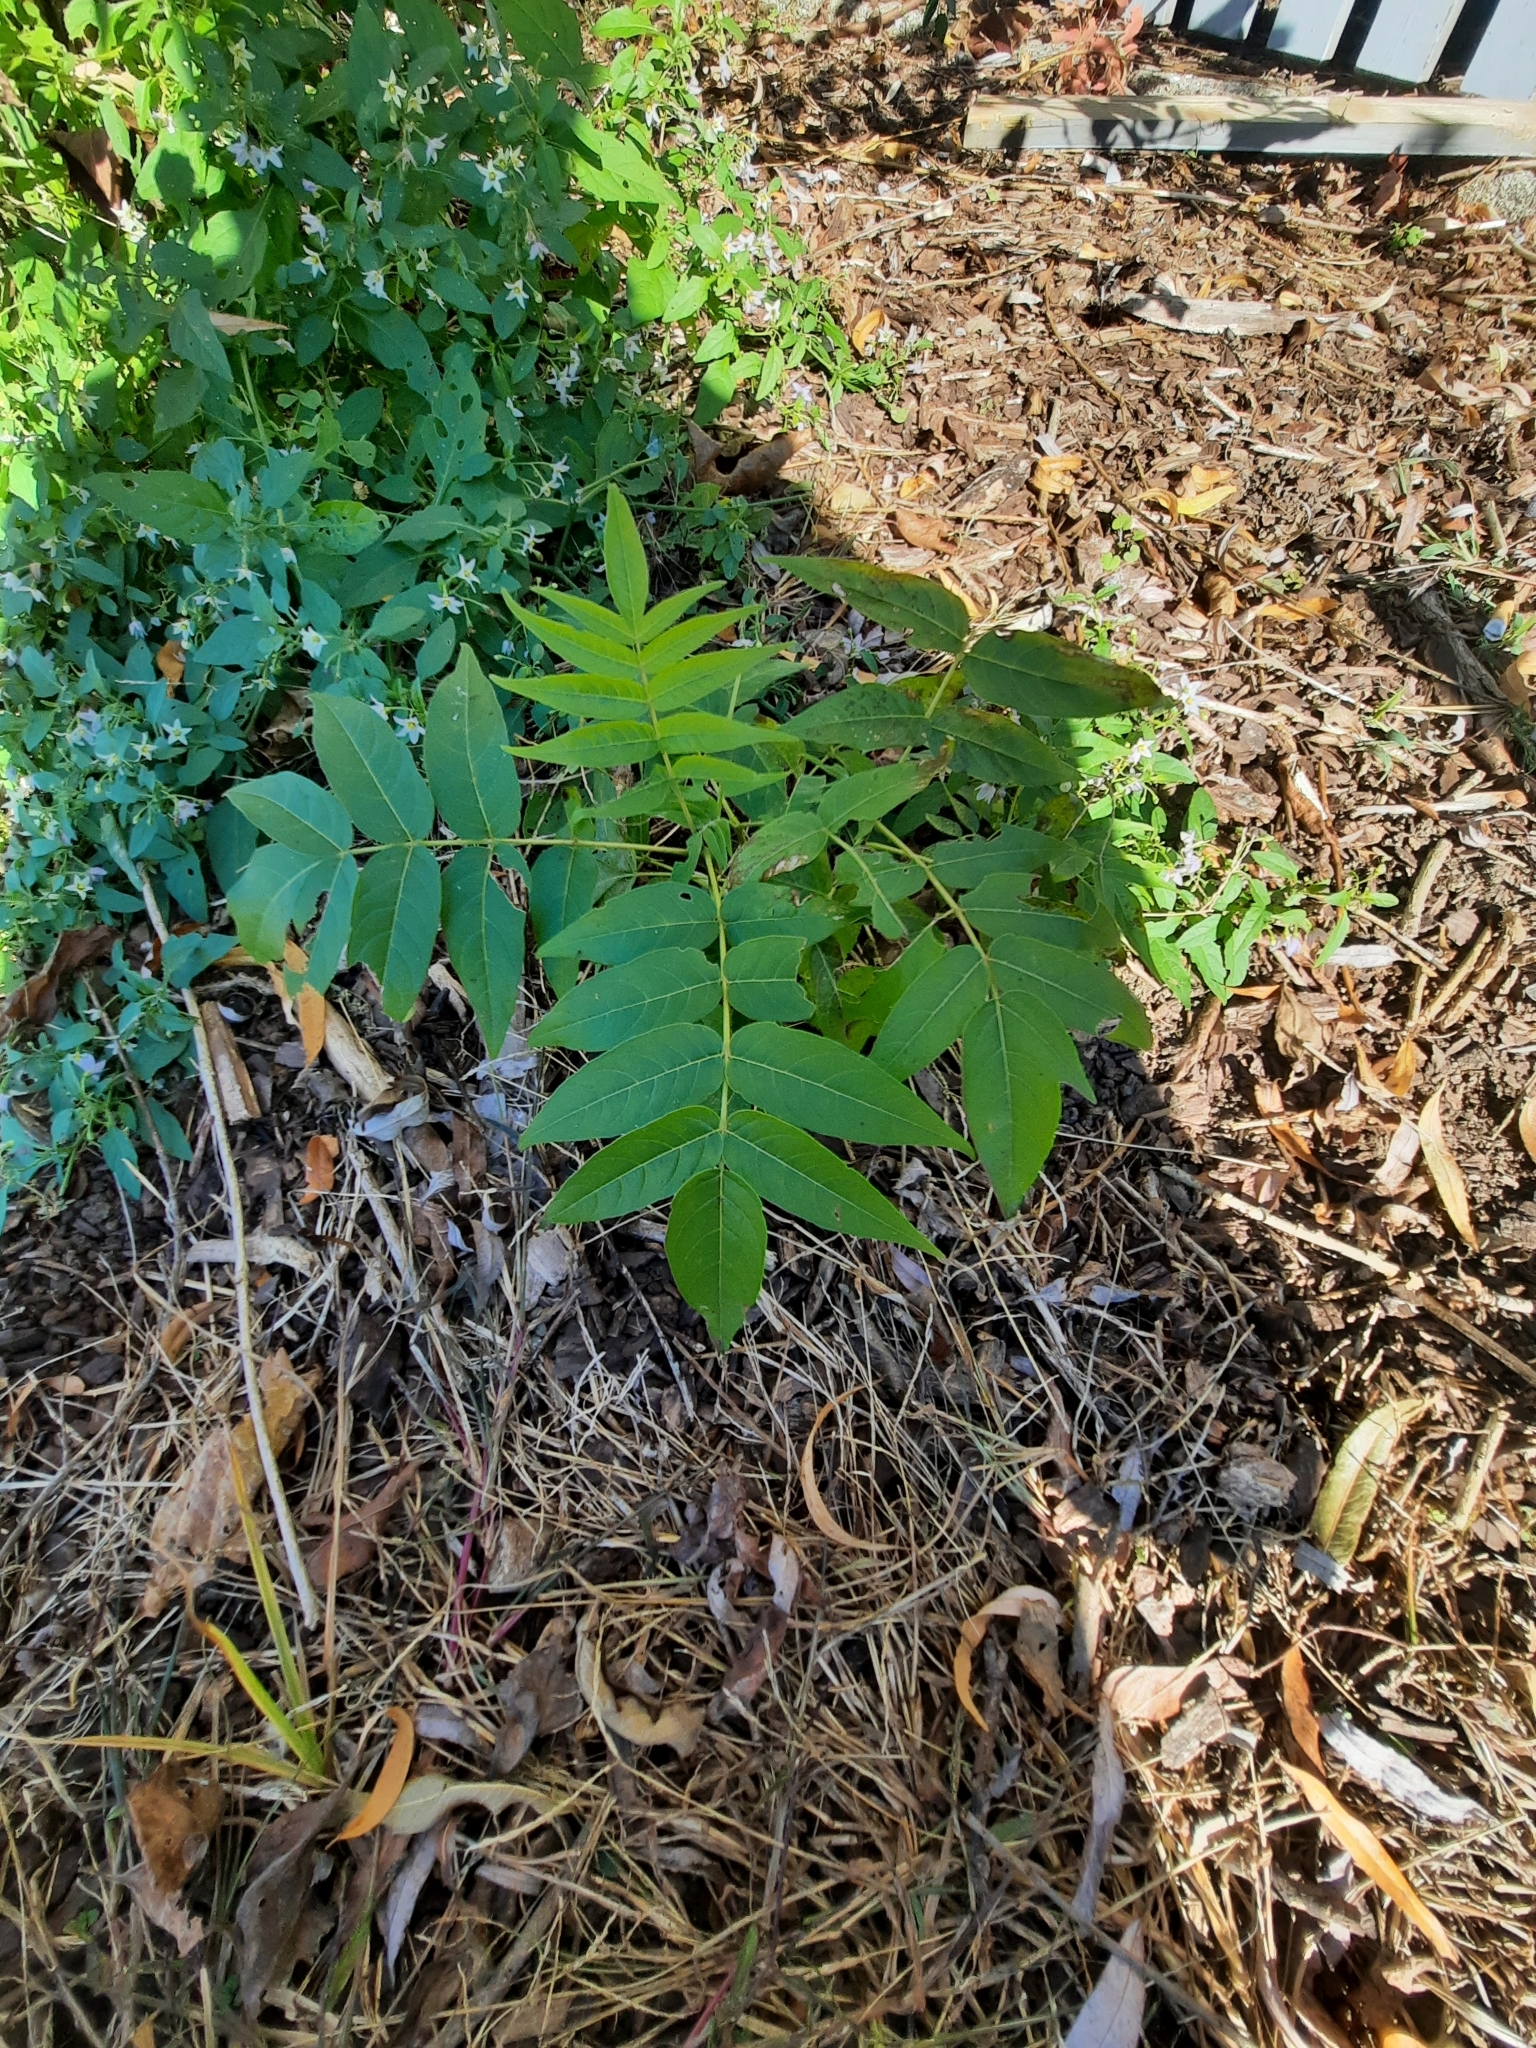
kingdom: Plantae
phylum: Tracheophyta
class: Magnoliopsida
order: Sapindales
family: Simaroubaceae
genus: Ailanthus
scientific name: Ailanthus altissima
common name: Tree-of-heaven
